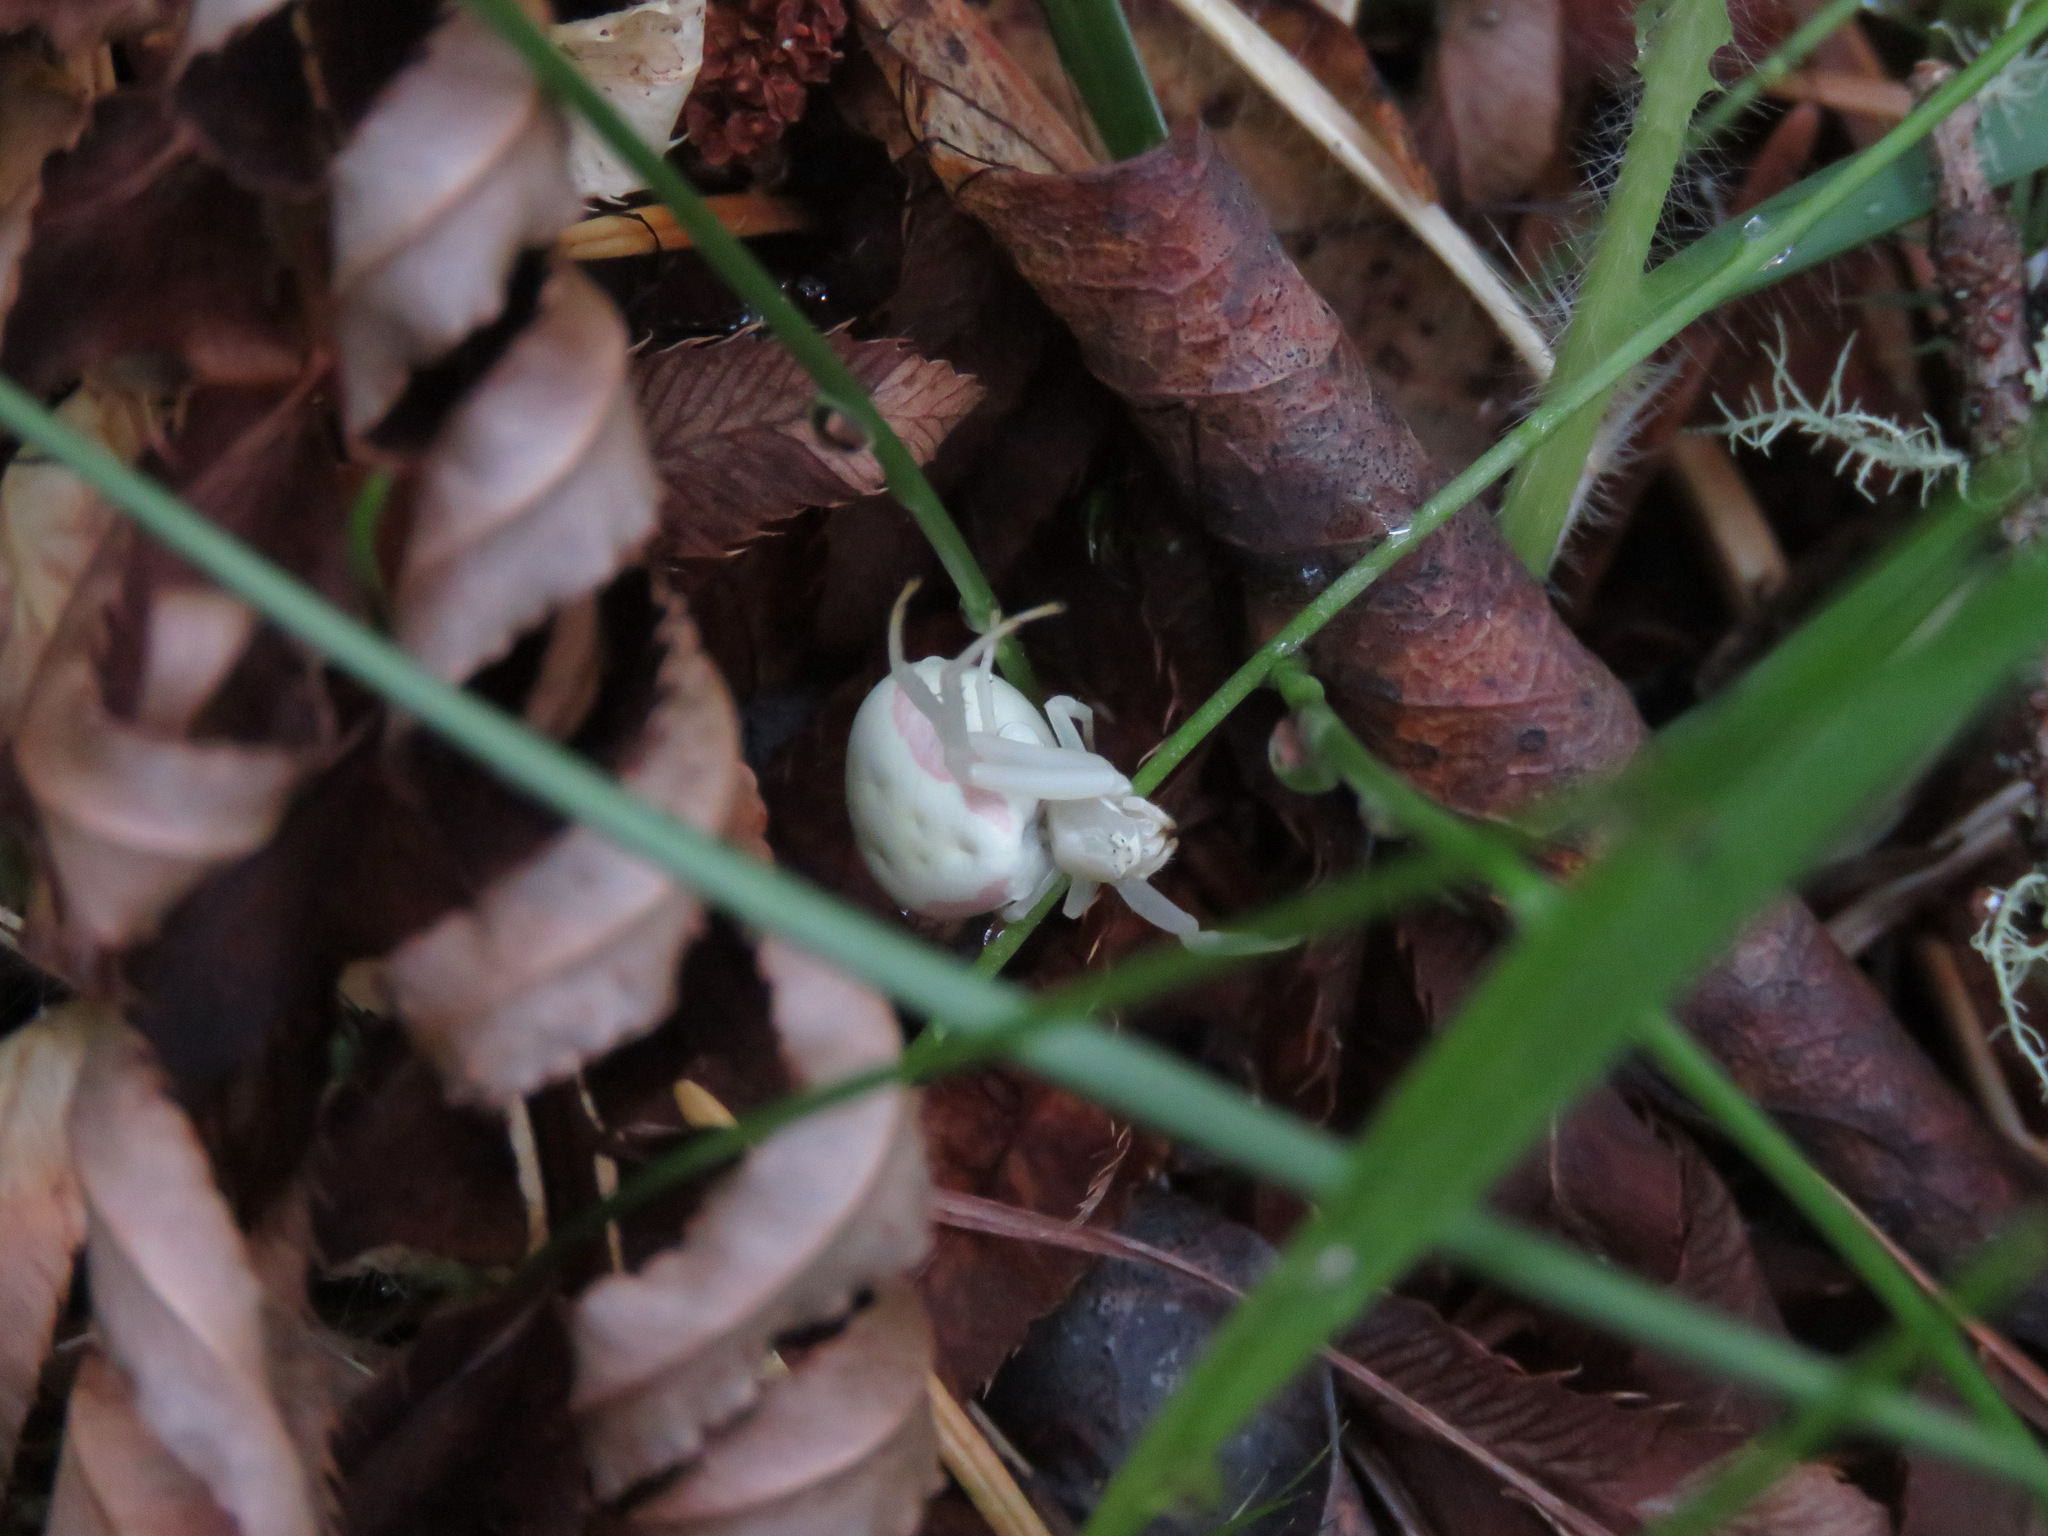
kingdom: Animalia
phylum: Arthropoda
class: Arachnida
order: Araneae
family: Thomisidae
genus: Misumena
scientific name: Misumena vatia
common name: Goldenrod crab spider
